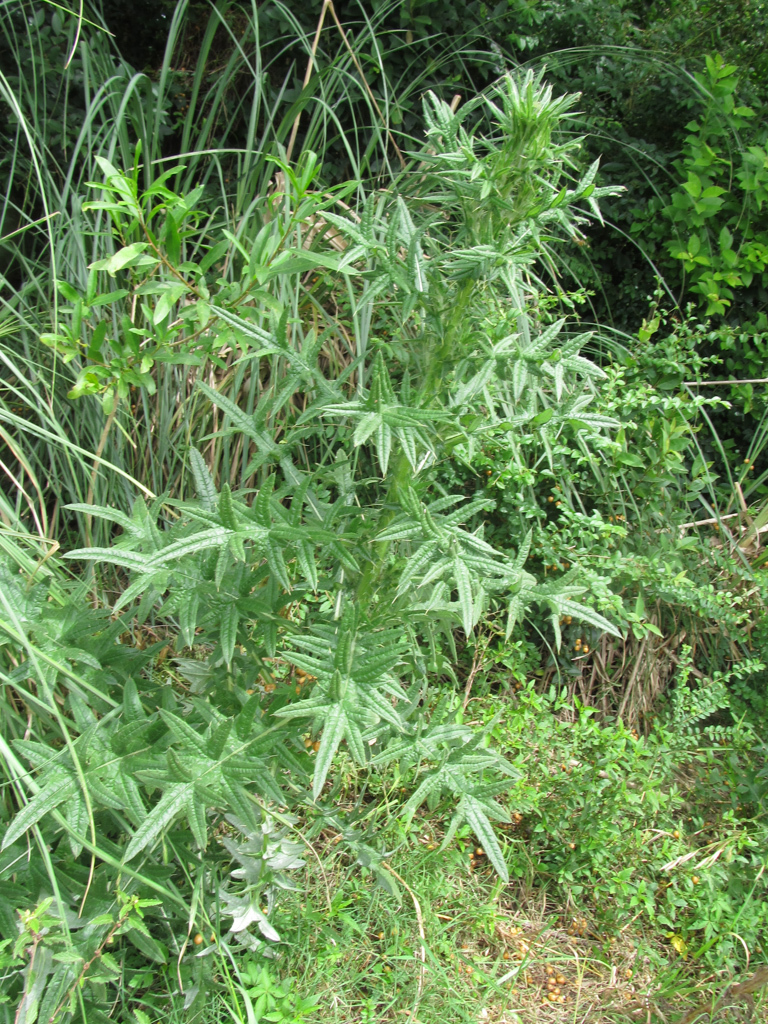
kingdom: Plantae
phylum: Tracheophyta
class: Magnoliopsida
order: Asterales
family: Asteraceae
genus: Cirsium
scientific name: Cirsium vulgare
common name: Bull thistle
